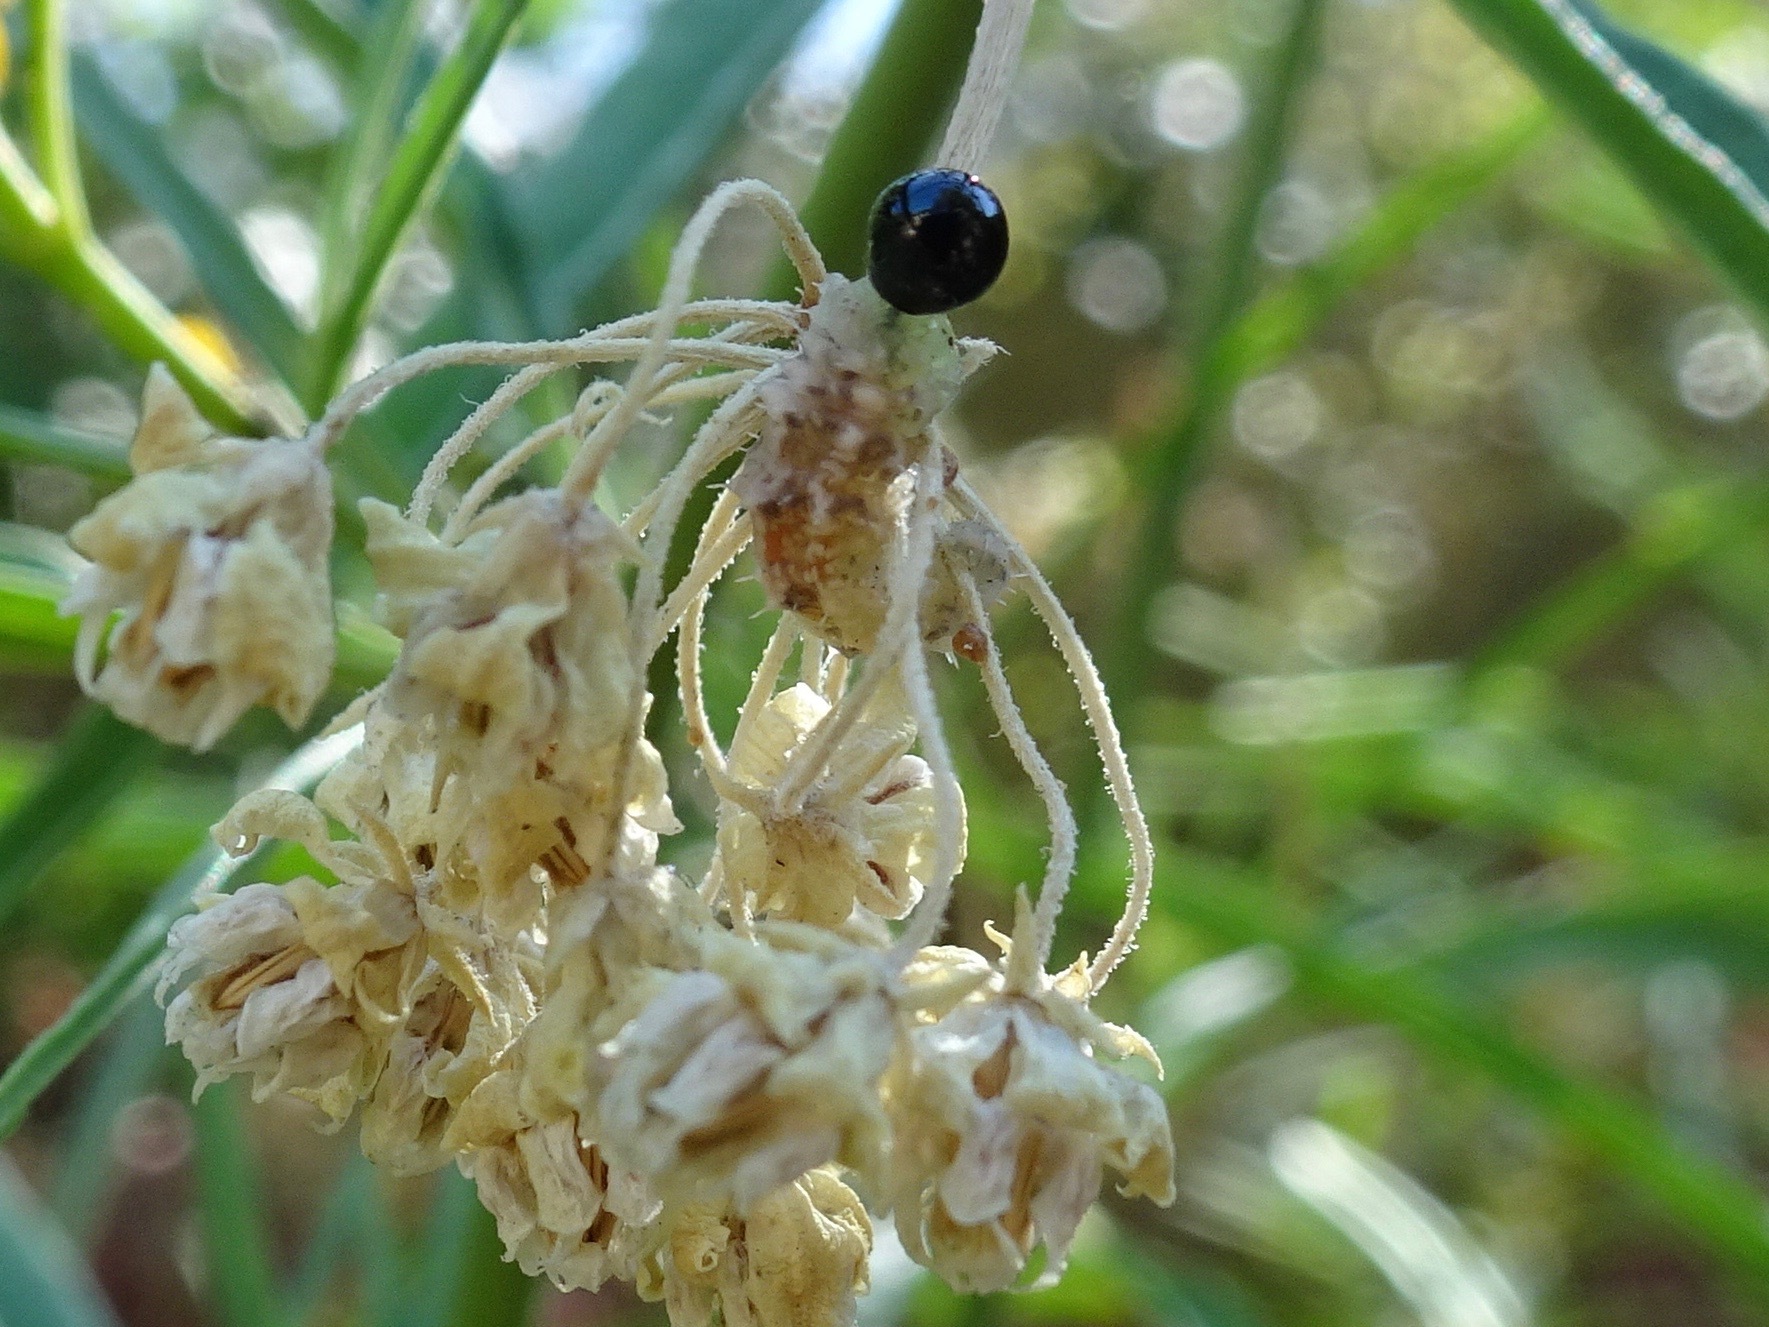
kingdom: Animalia
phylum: Arthropoda
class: Insecta
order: Diptera
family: Syrphidae
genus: Dioprosopa
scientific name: Dioprosopa clavatus
